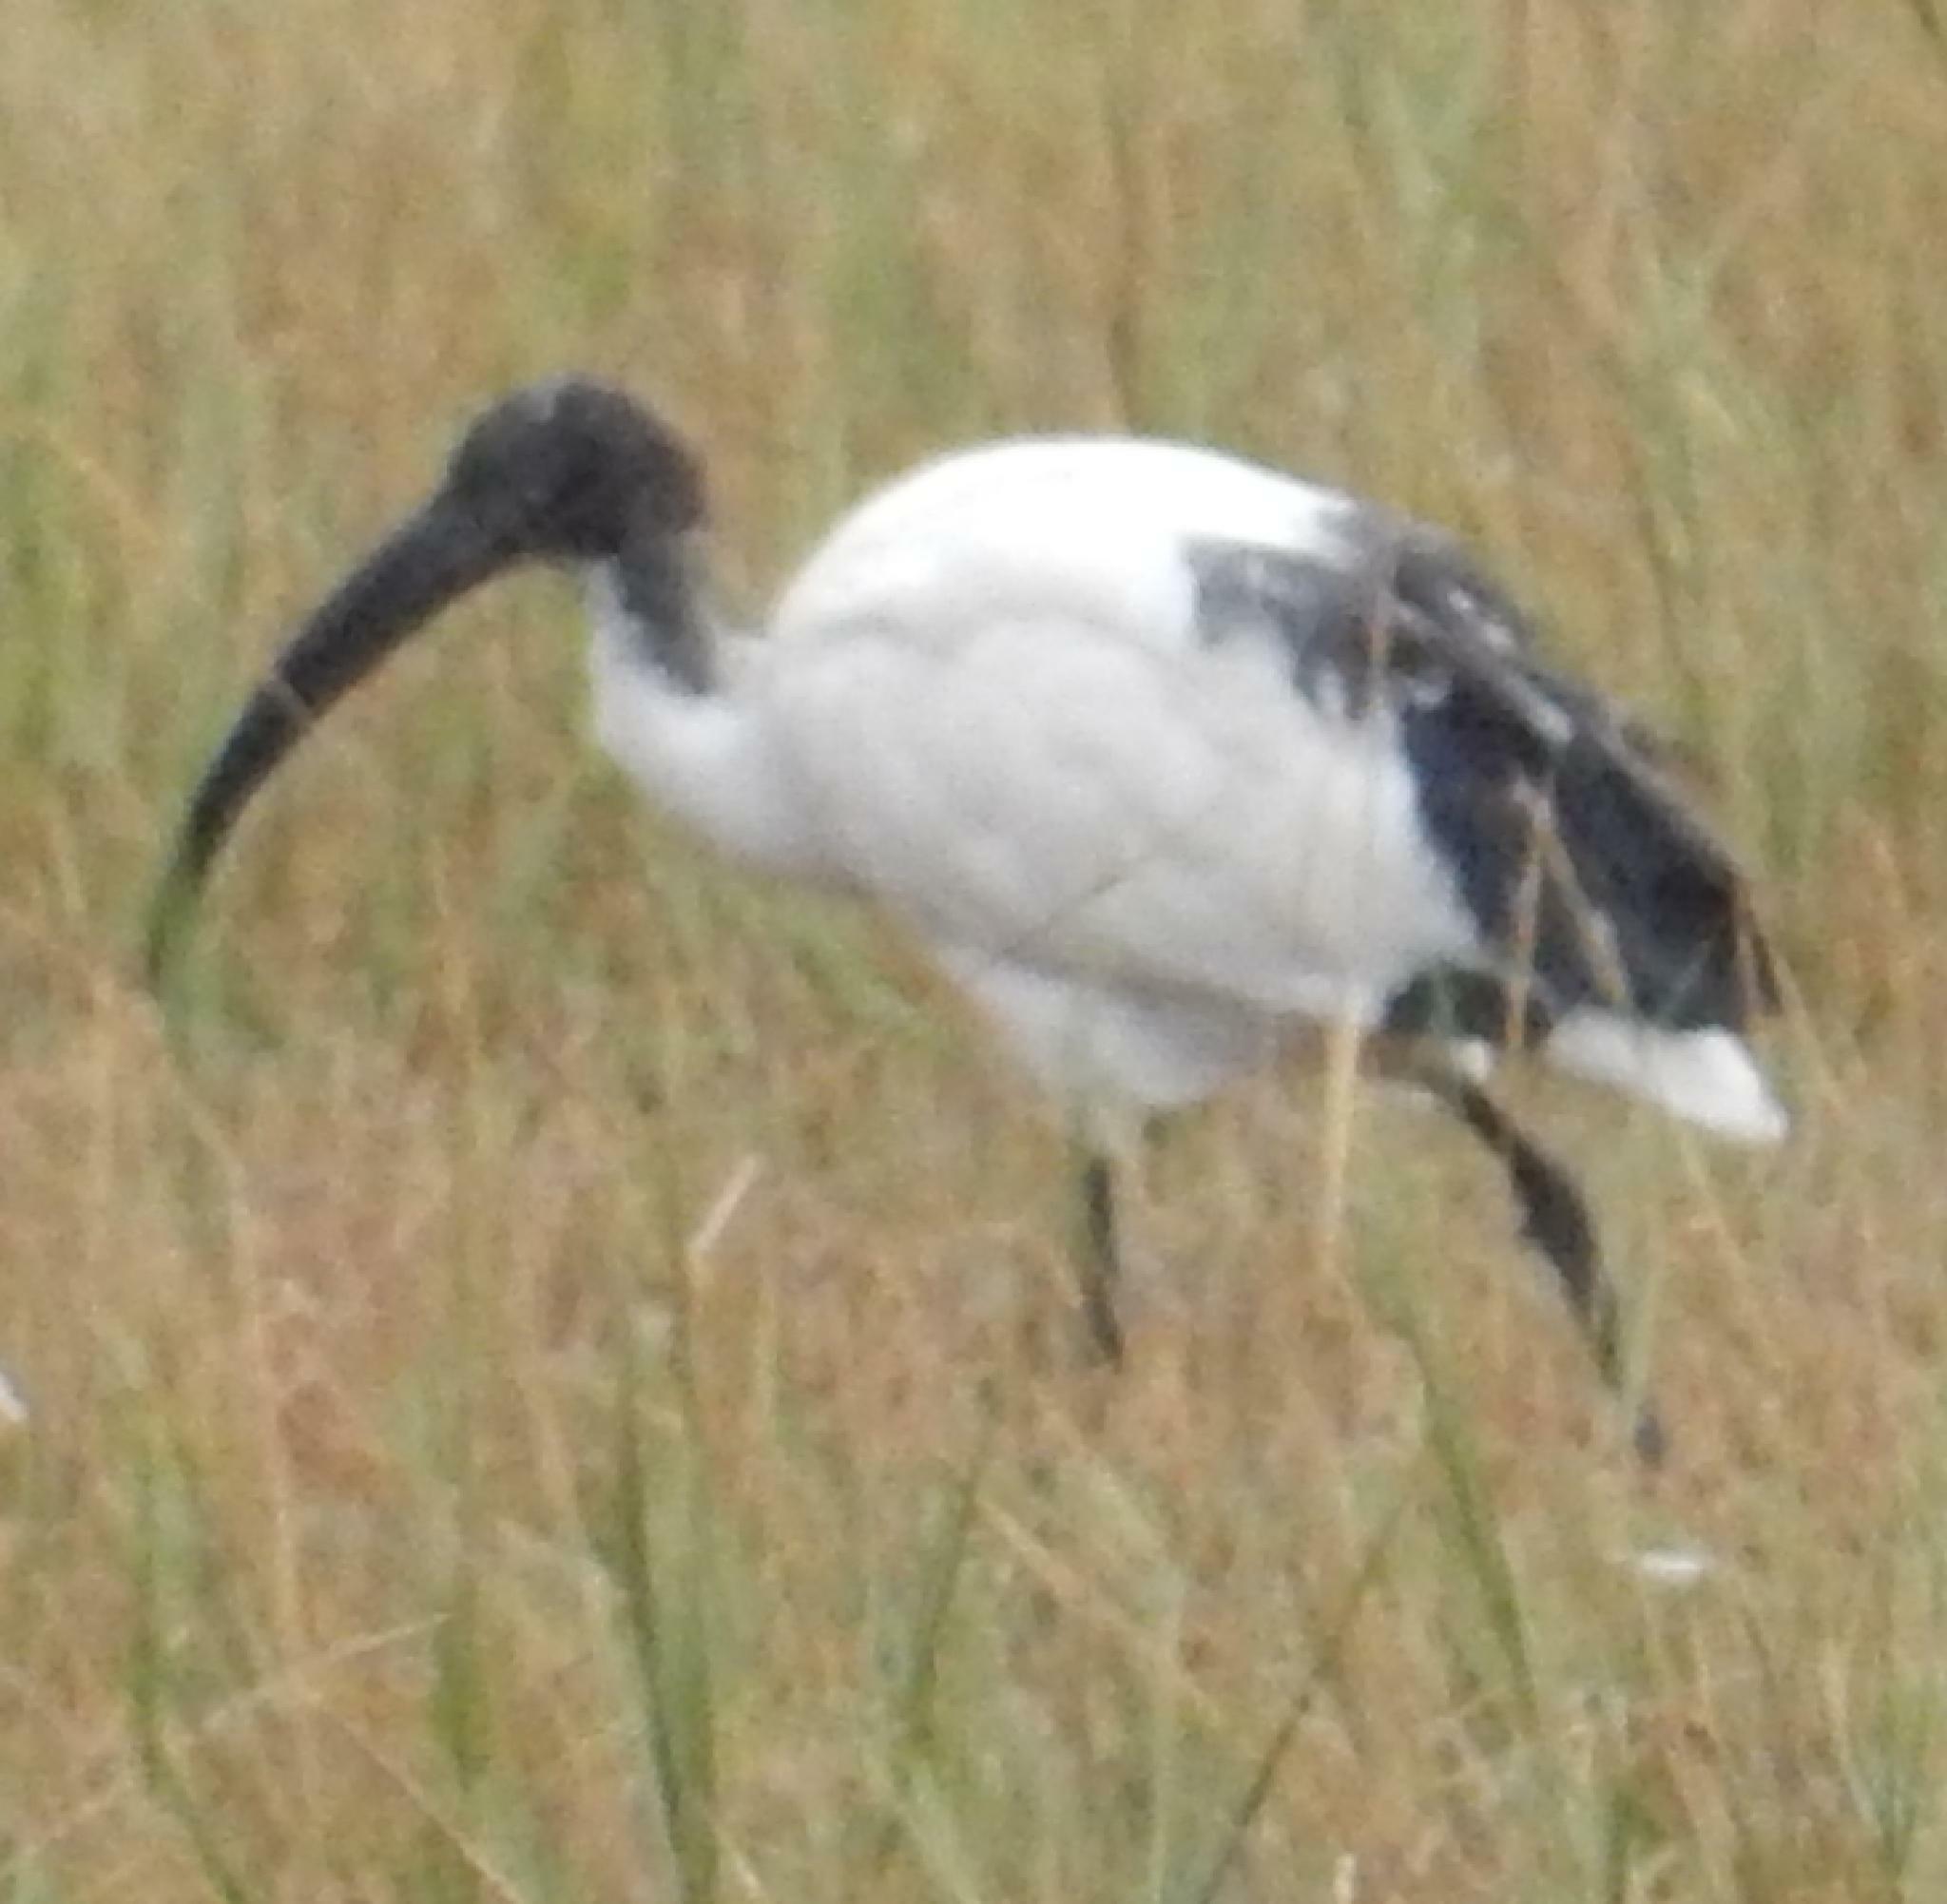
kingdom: Animalia
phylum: Chordata
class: Aves
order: Pelecaniformes
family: Threskiornithidae
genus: Threskiornis
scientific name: Threskiornis aethiopicus
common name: Sacred ibis
